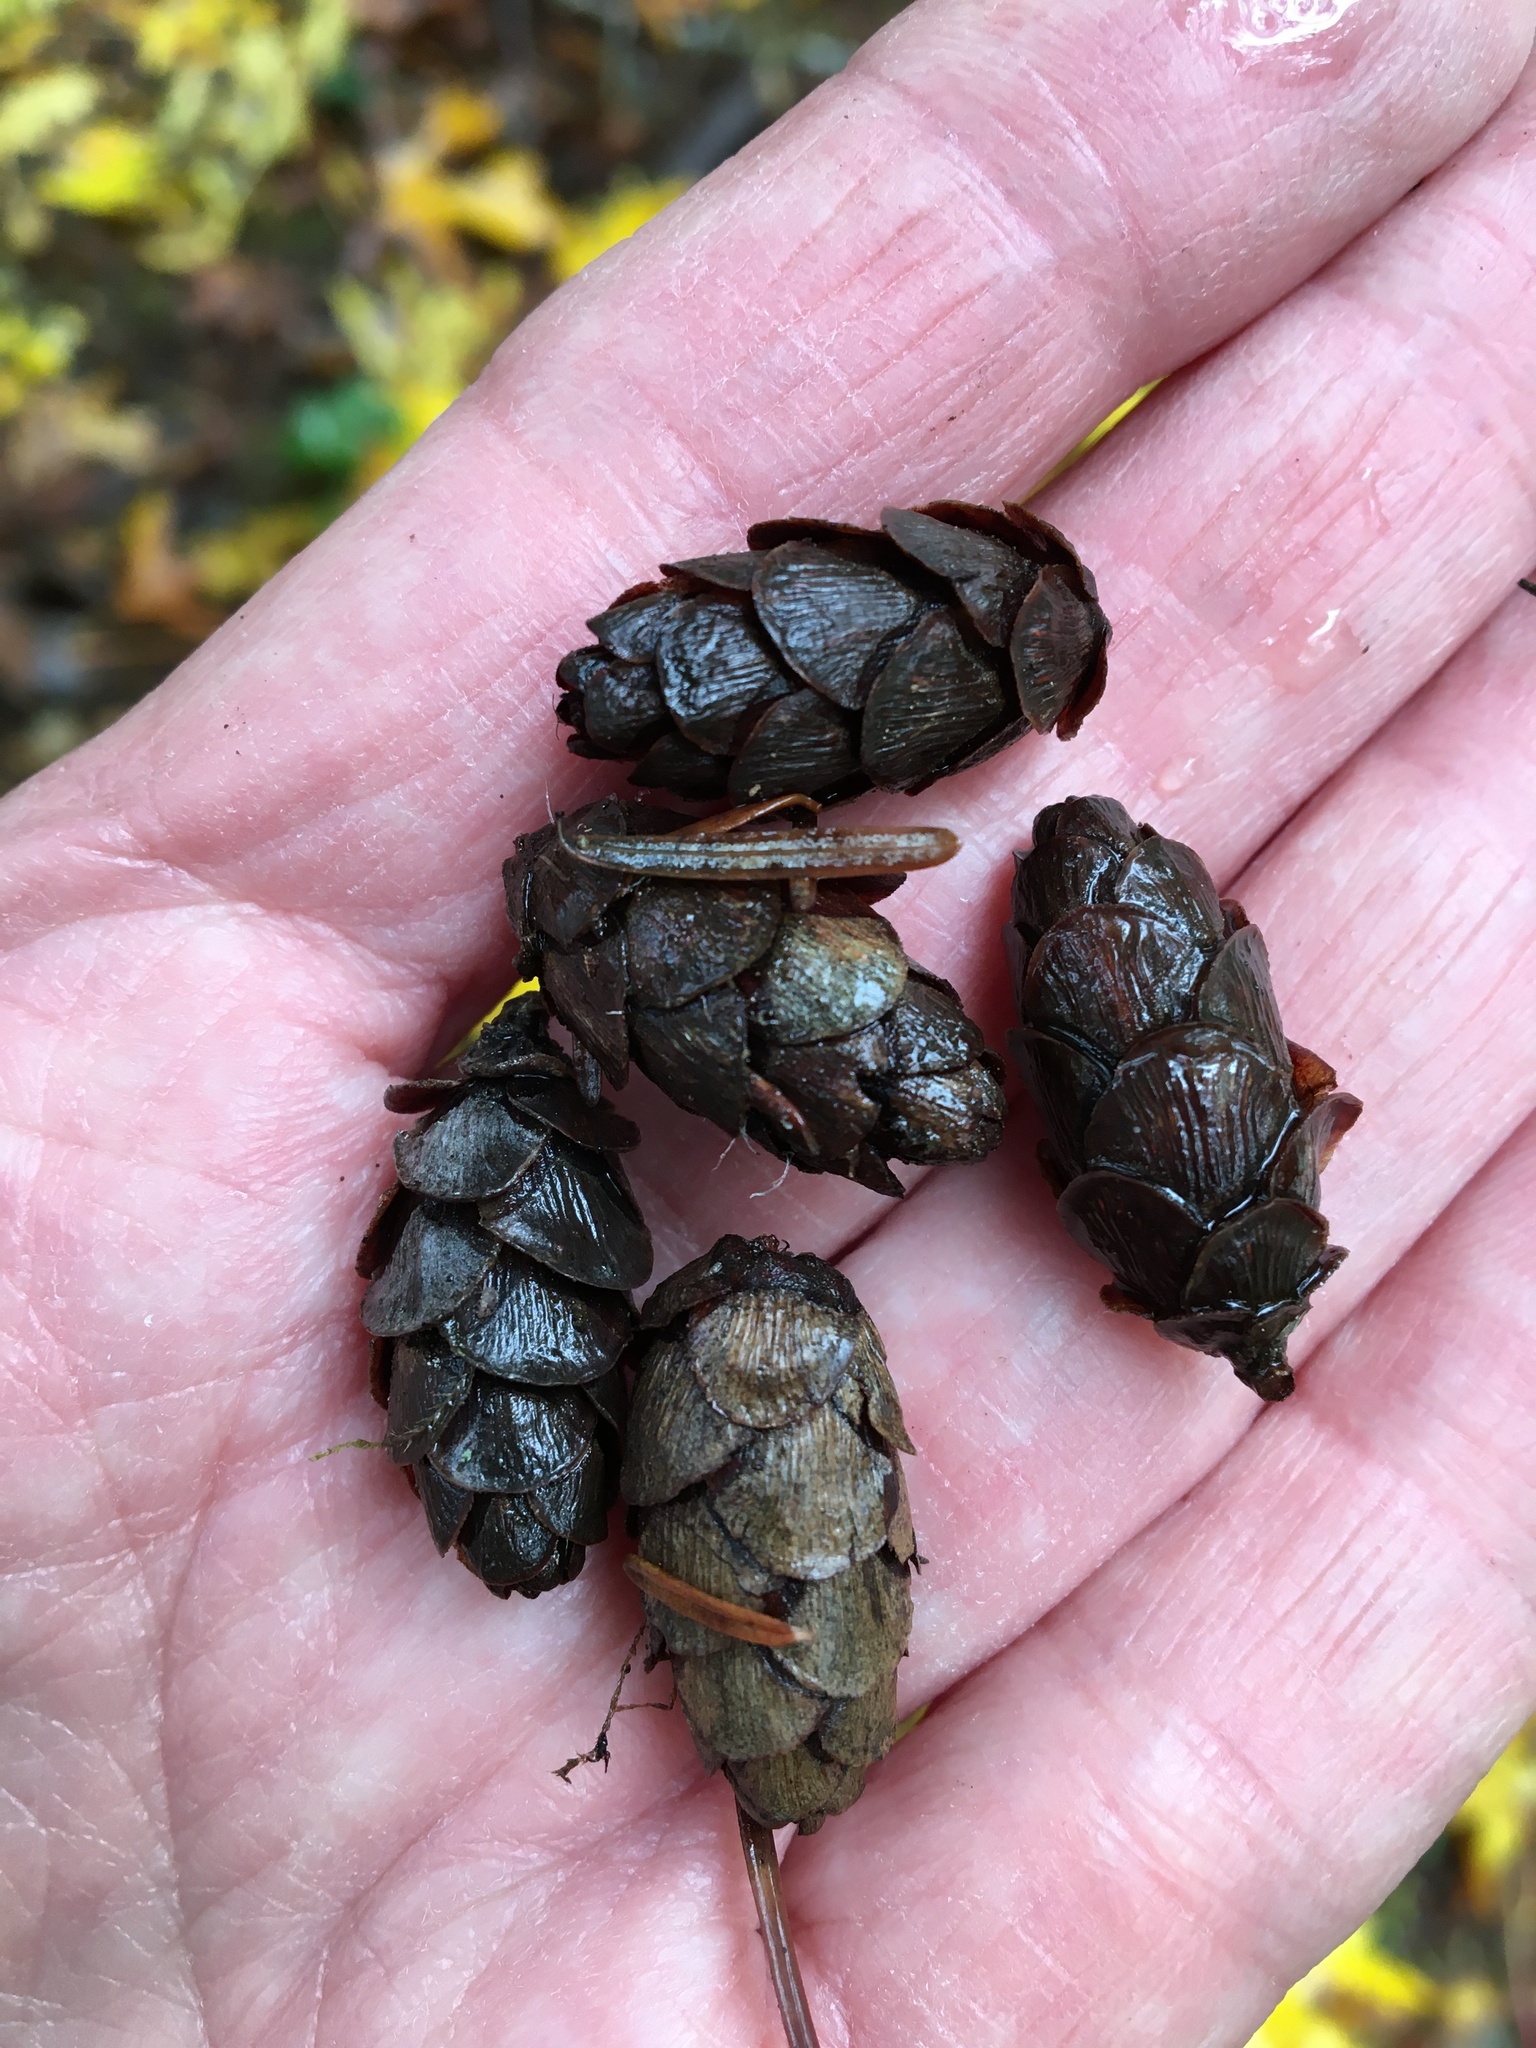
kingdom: Plantae
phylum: Tracheophyta
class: Pinopsida
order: Pinales
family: Pinaceae
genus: Tsuga
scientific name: Tsuga heterophylla
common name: Western hemlock
